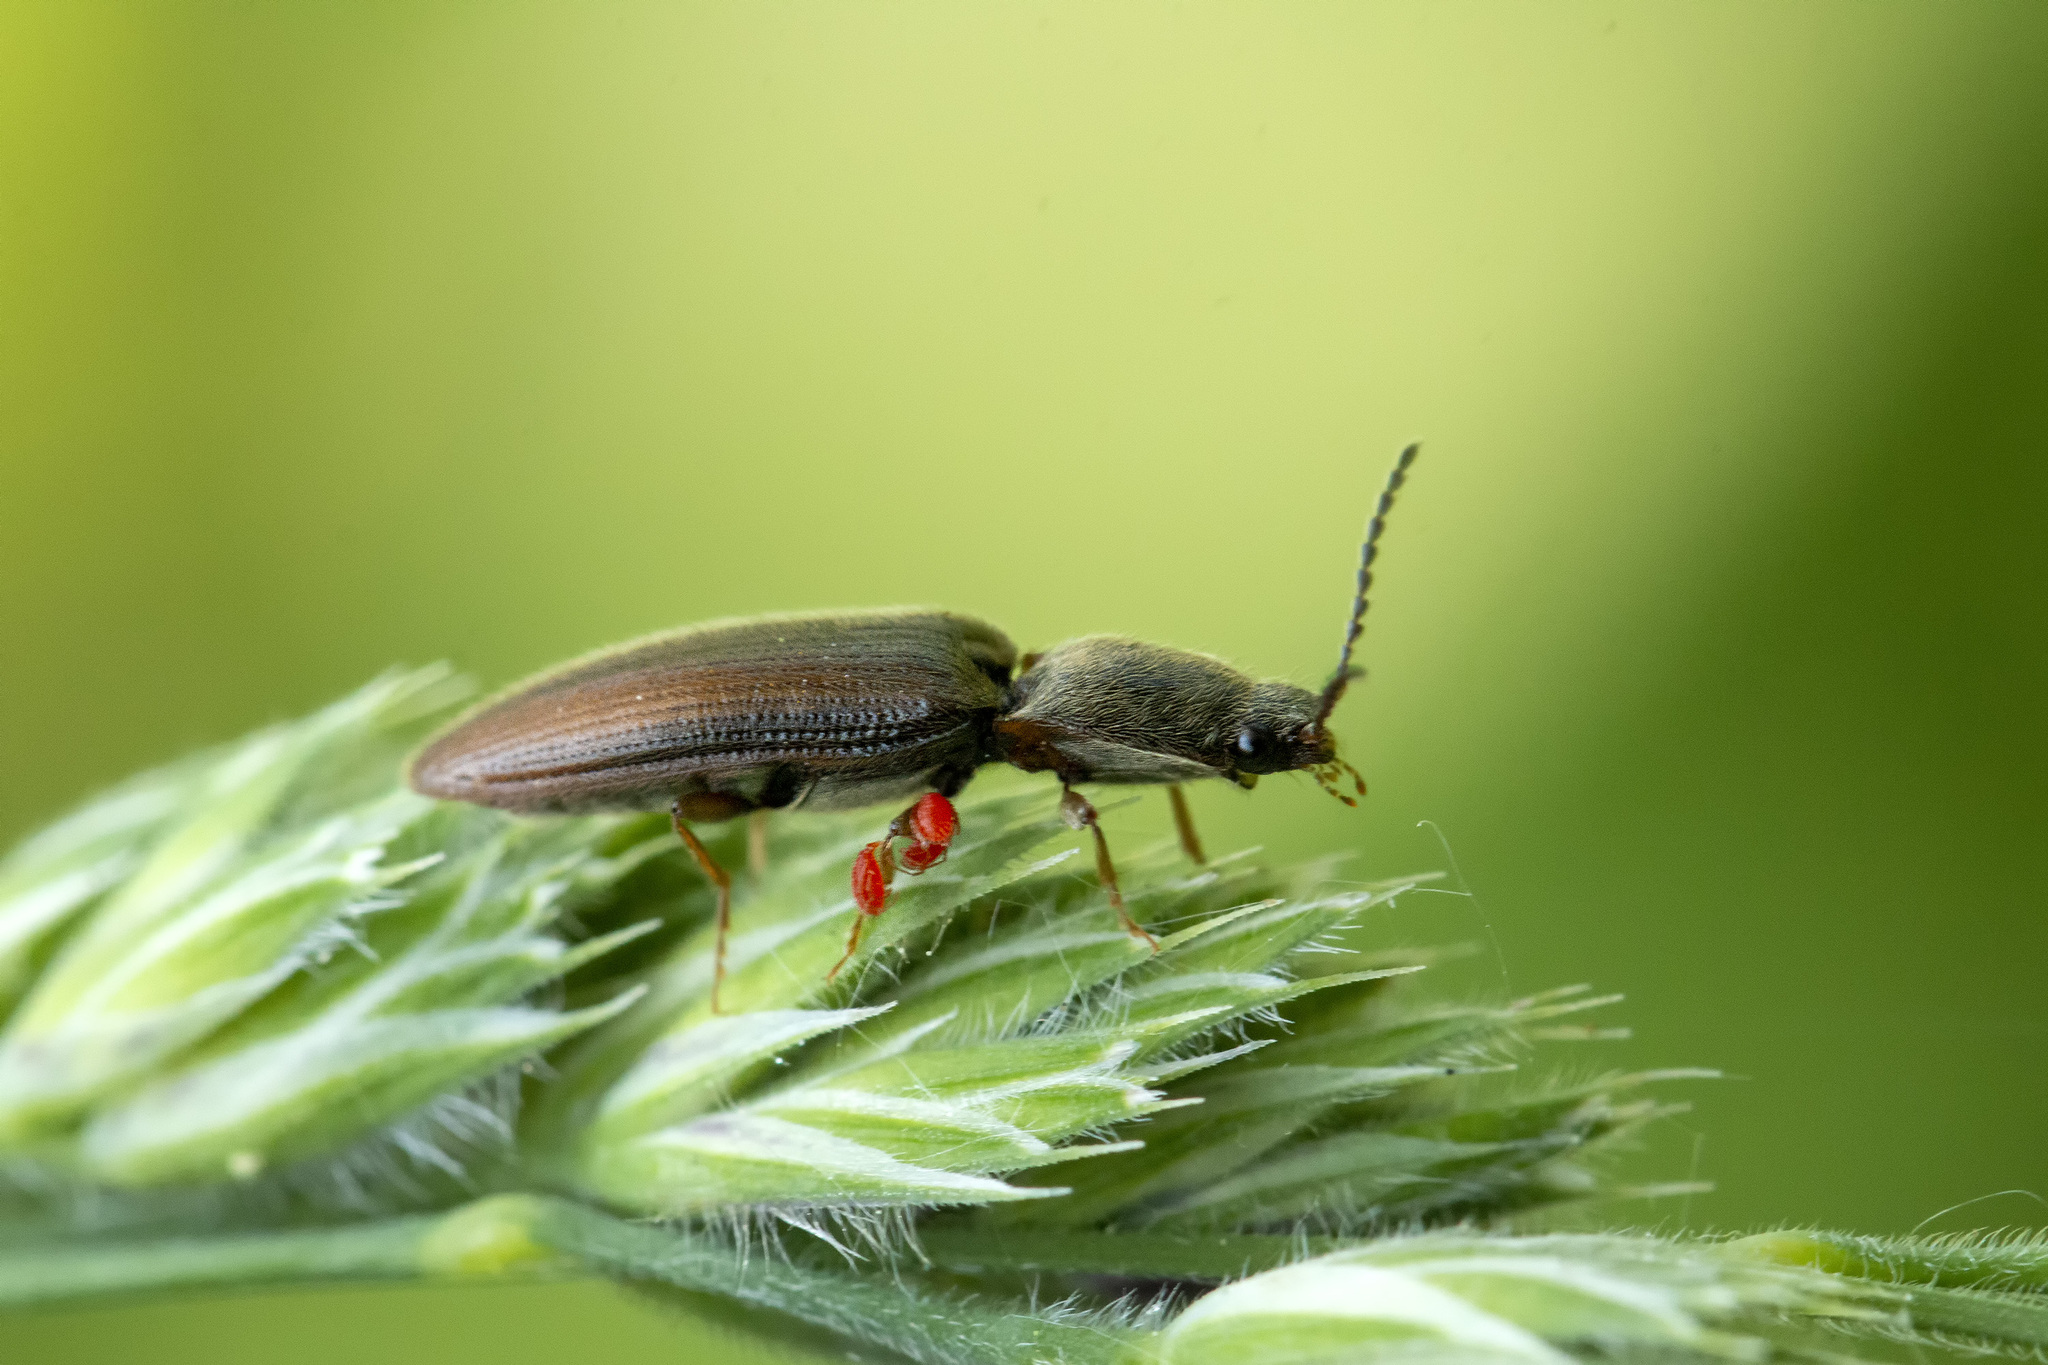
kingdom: Animalia
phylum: Arthropoda
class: Insecta
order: Coleoptera
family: Elateridae
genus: Athous
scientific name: Athous vittatus
